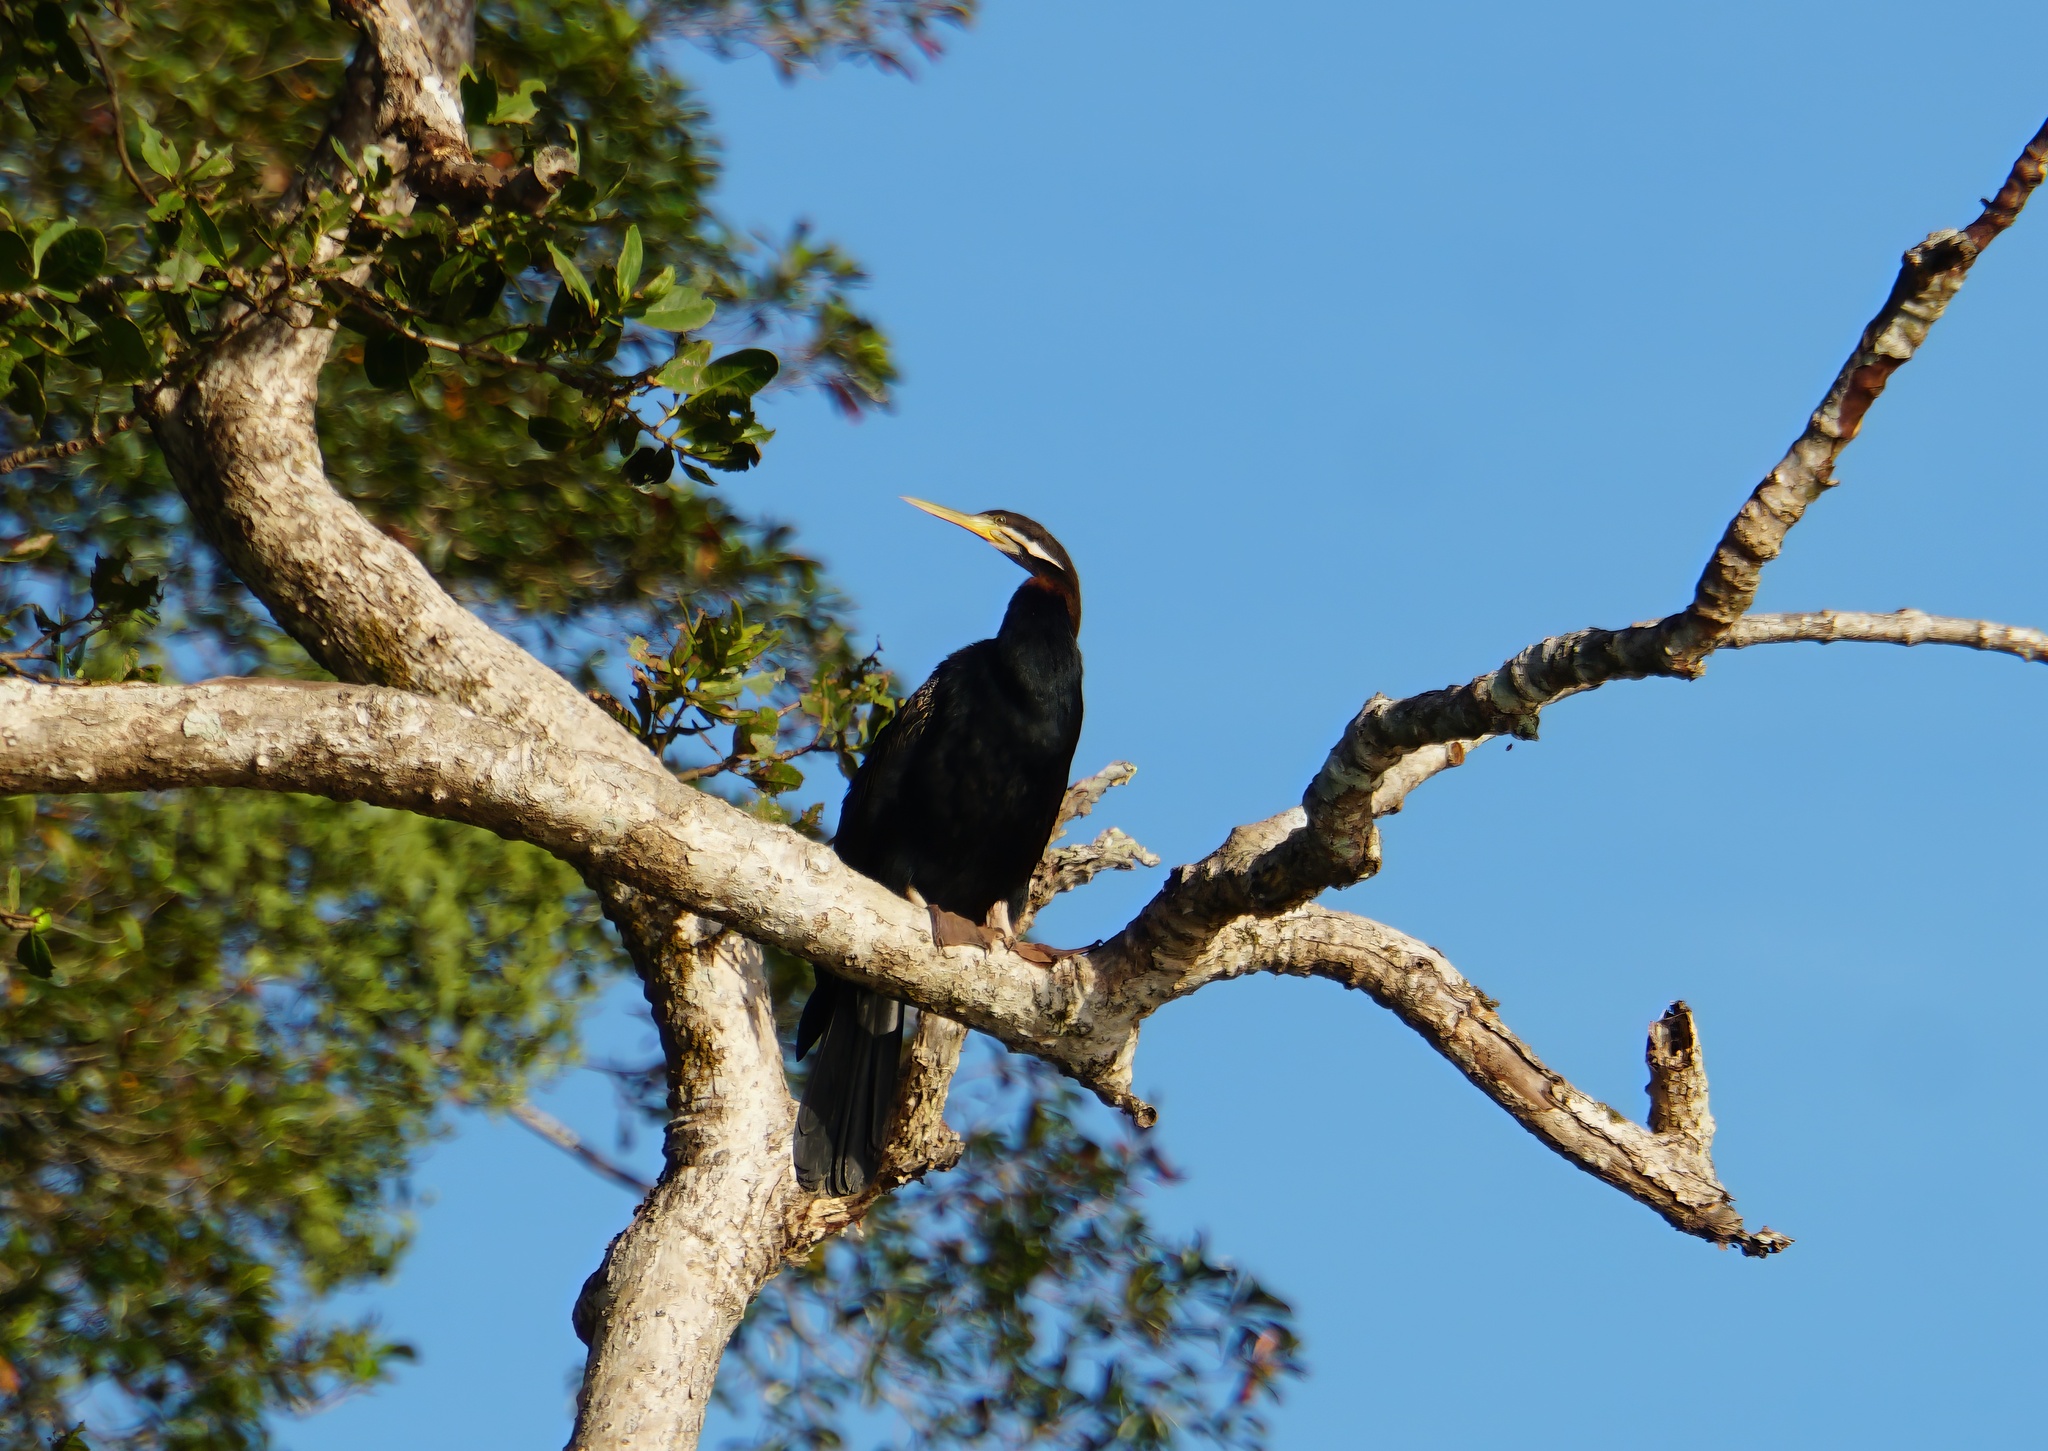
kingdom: Animalia
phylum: Chordata
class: Aves
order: Suliformes
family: Anhingidae
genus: Anhinga
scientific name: Anhinga novaehollandiae
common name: Australasian darter
